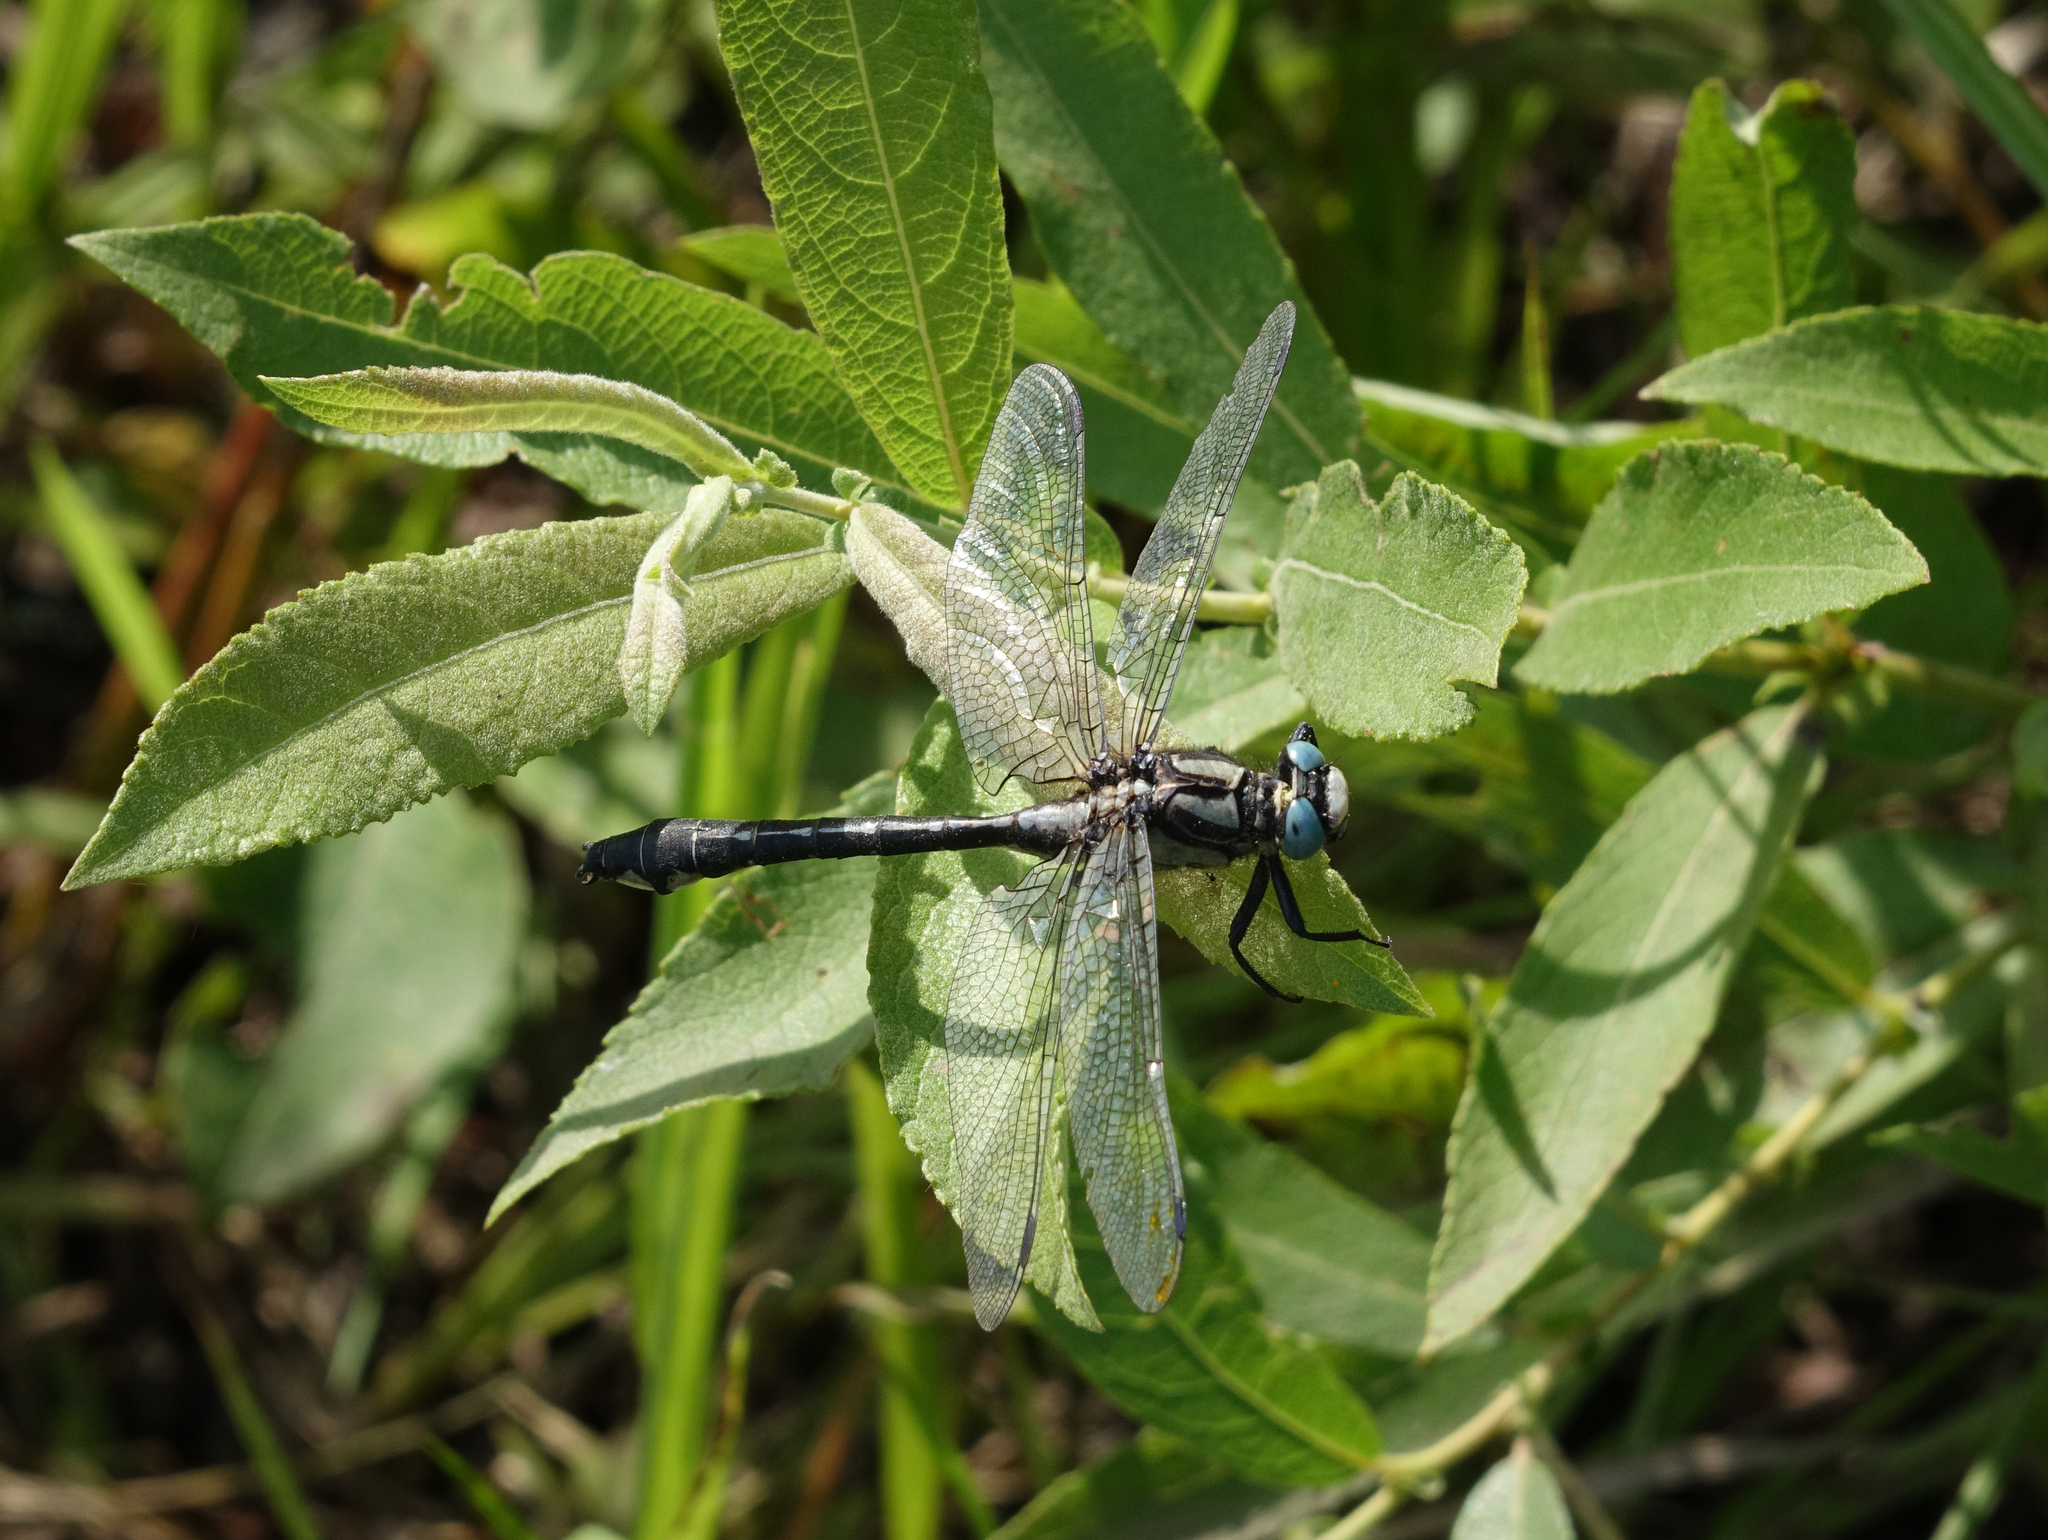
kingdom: Animalia
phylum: Arthropoda
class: Insecta
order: Odonata
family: Gomphidae
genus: Gomphus
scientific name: Gomphus vulgatissimus
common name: Club-tailed dragonfly
